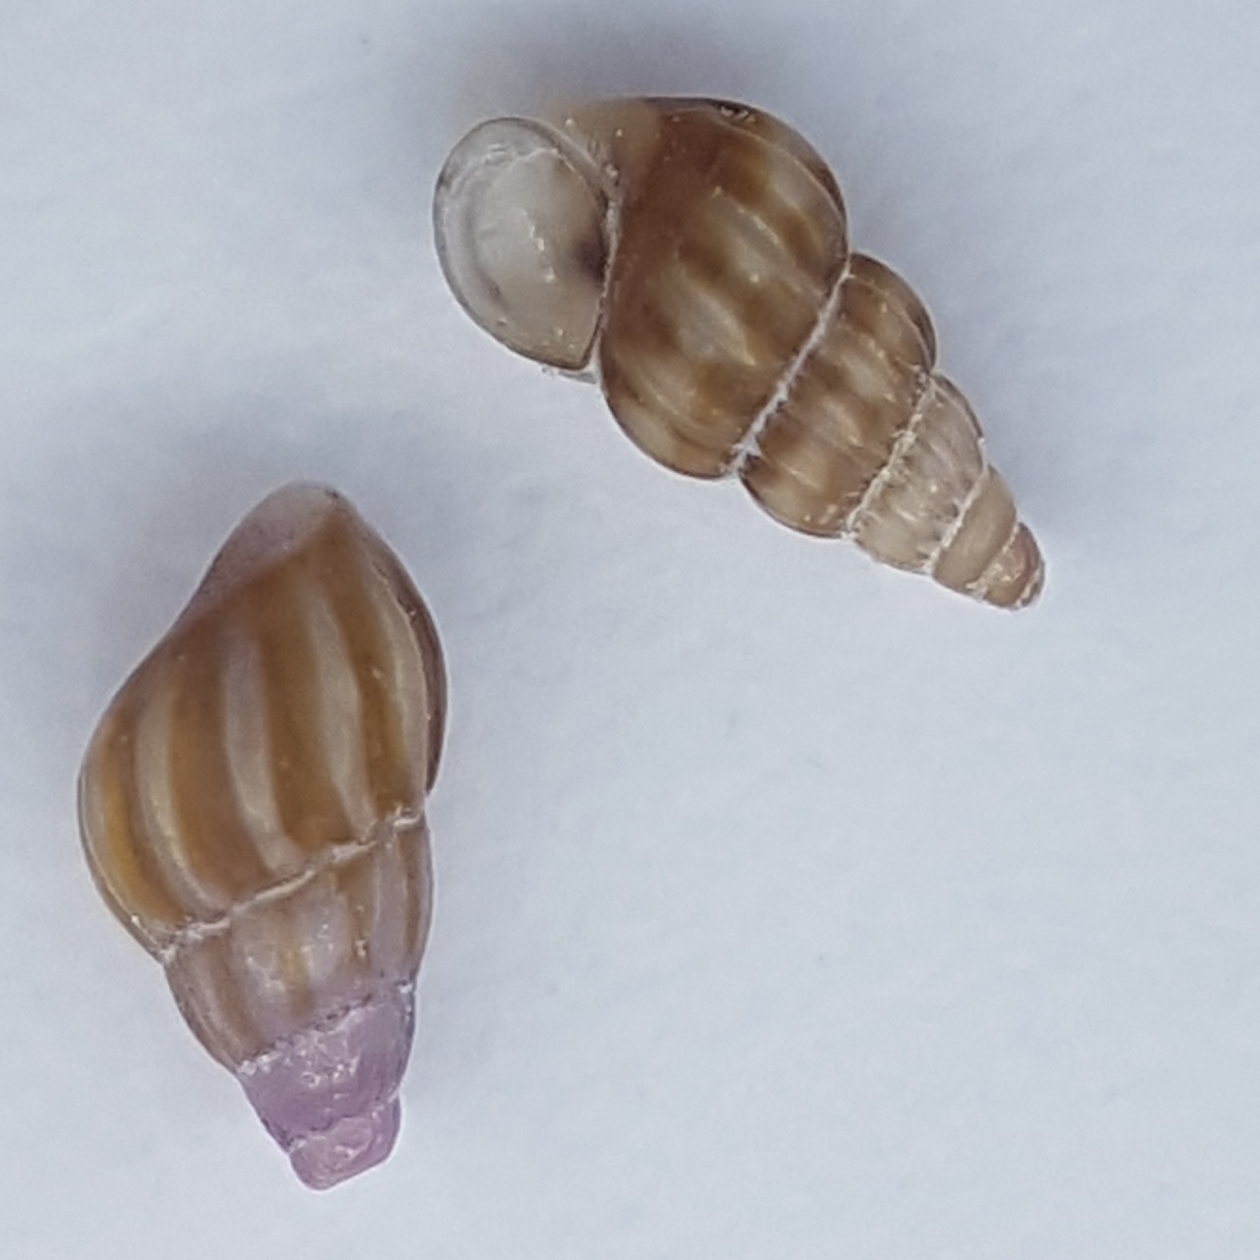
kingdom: Animalia
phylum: Mollusca
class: Gastropoda
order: Littorinimorpha
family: Rissoidae
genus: Rissoa
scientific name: Rissoa parva
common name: Tiny risso snail
